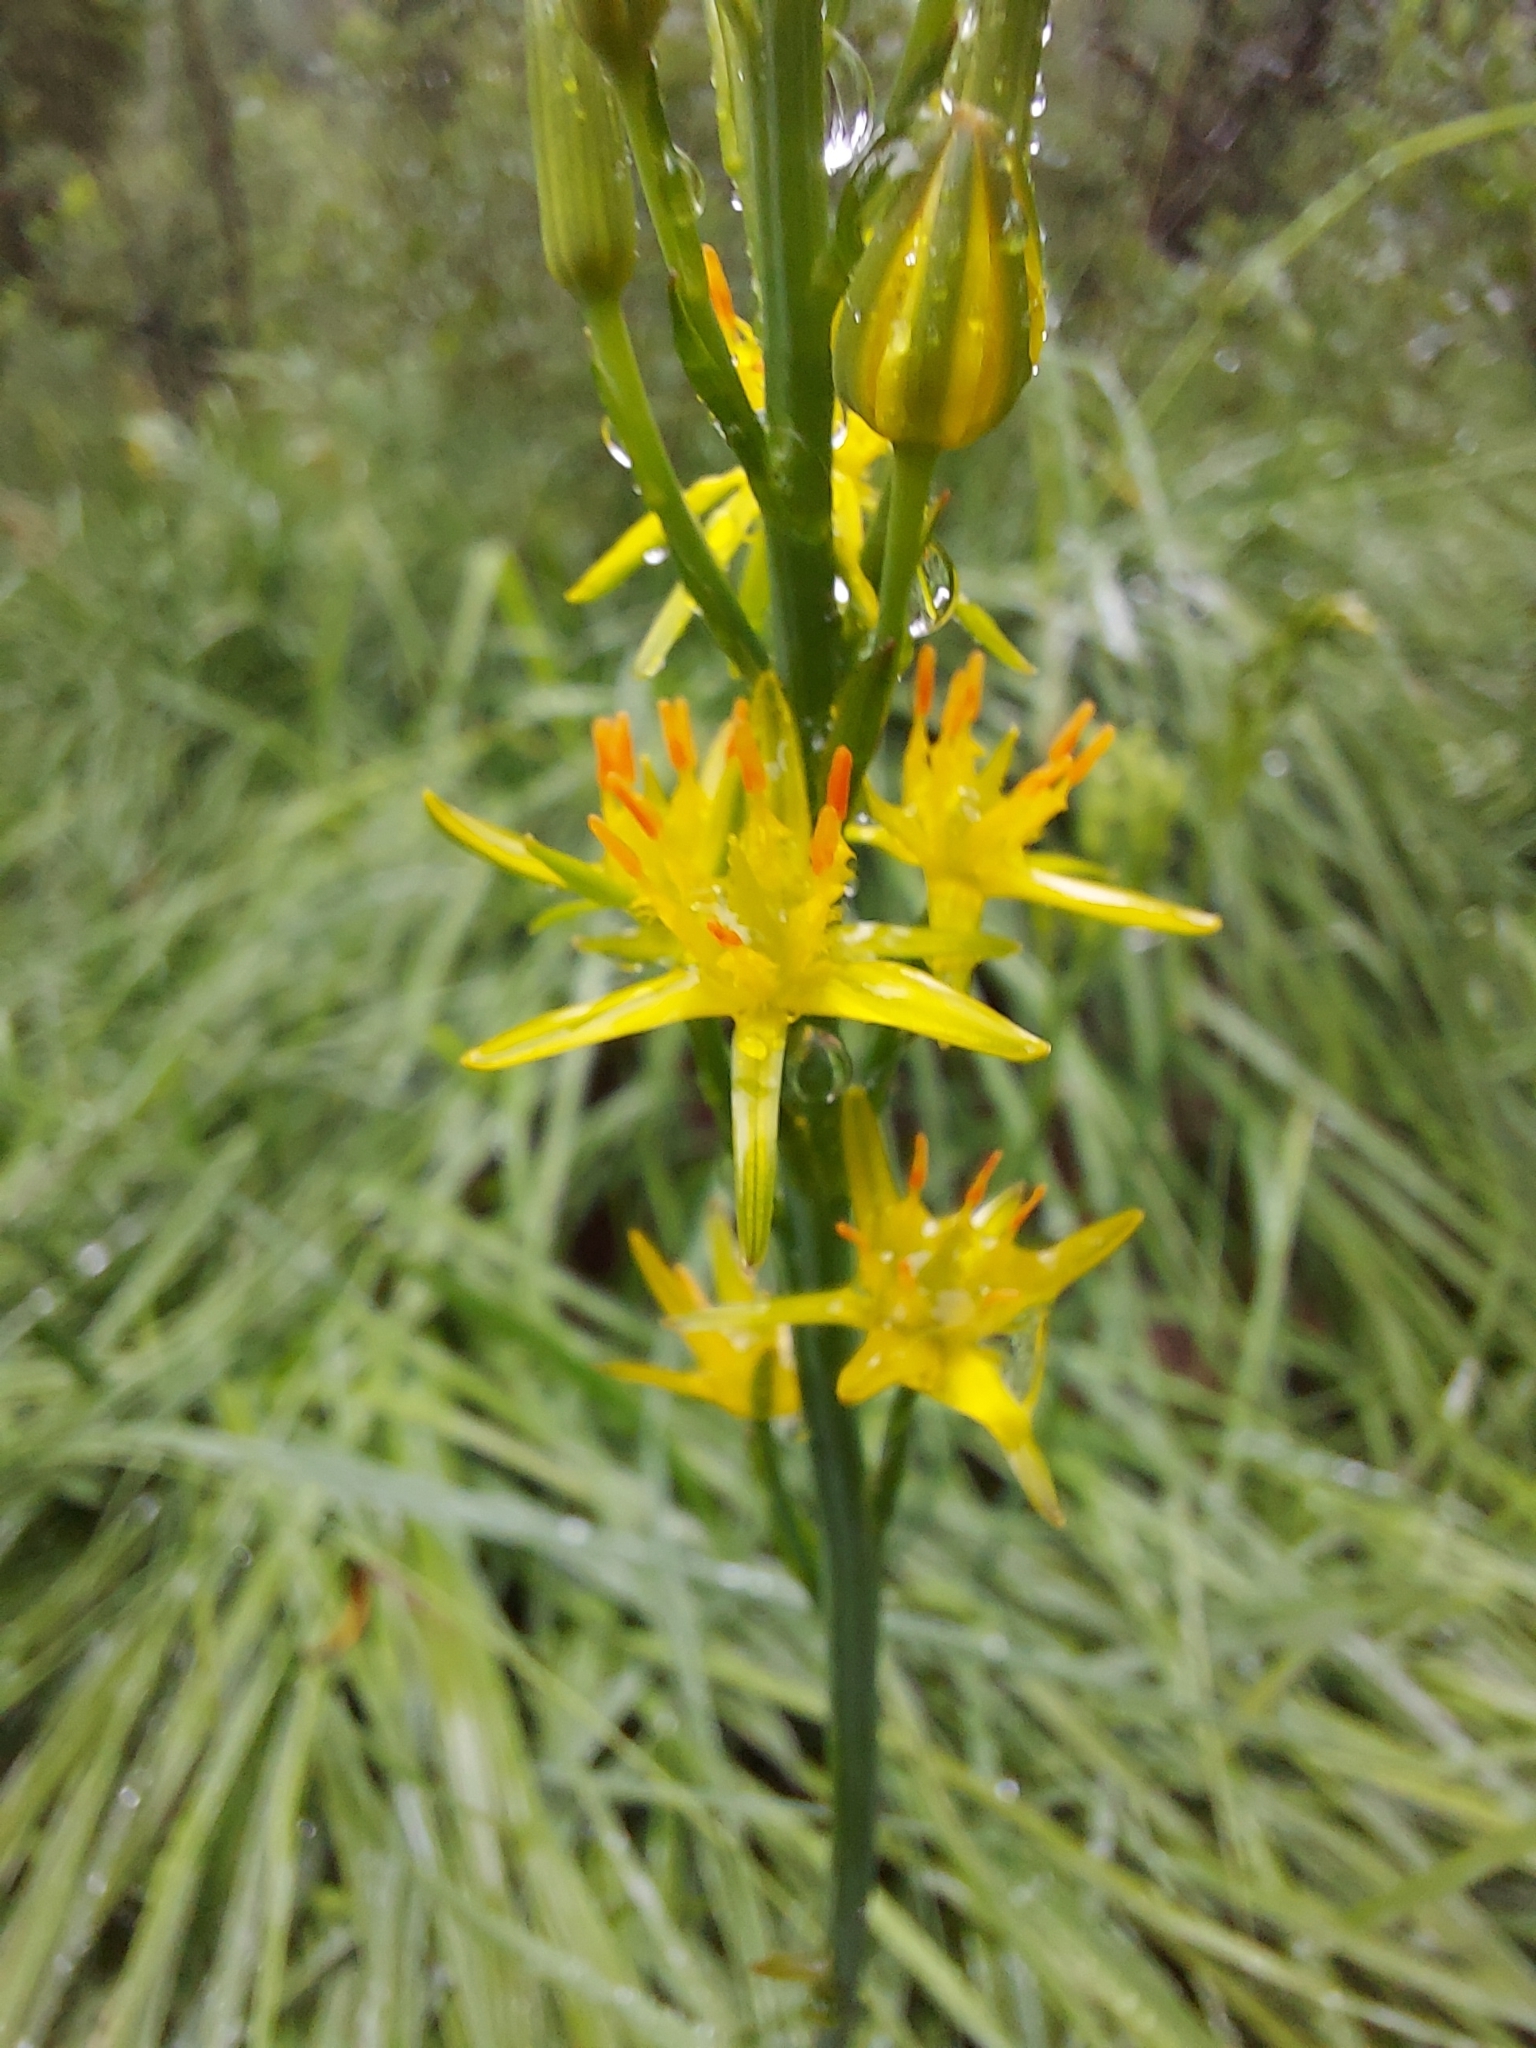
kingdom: Plantae
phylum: Tracheophyta
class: Liliopsida
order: Dioscoreales
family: Nartheciaceae
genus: Narthecium
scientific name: Narthecium ossifragum
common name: Bog asphodel
